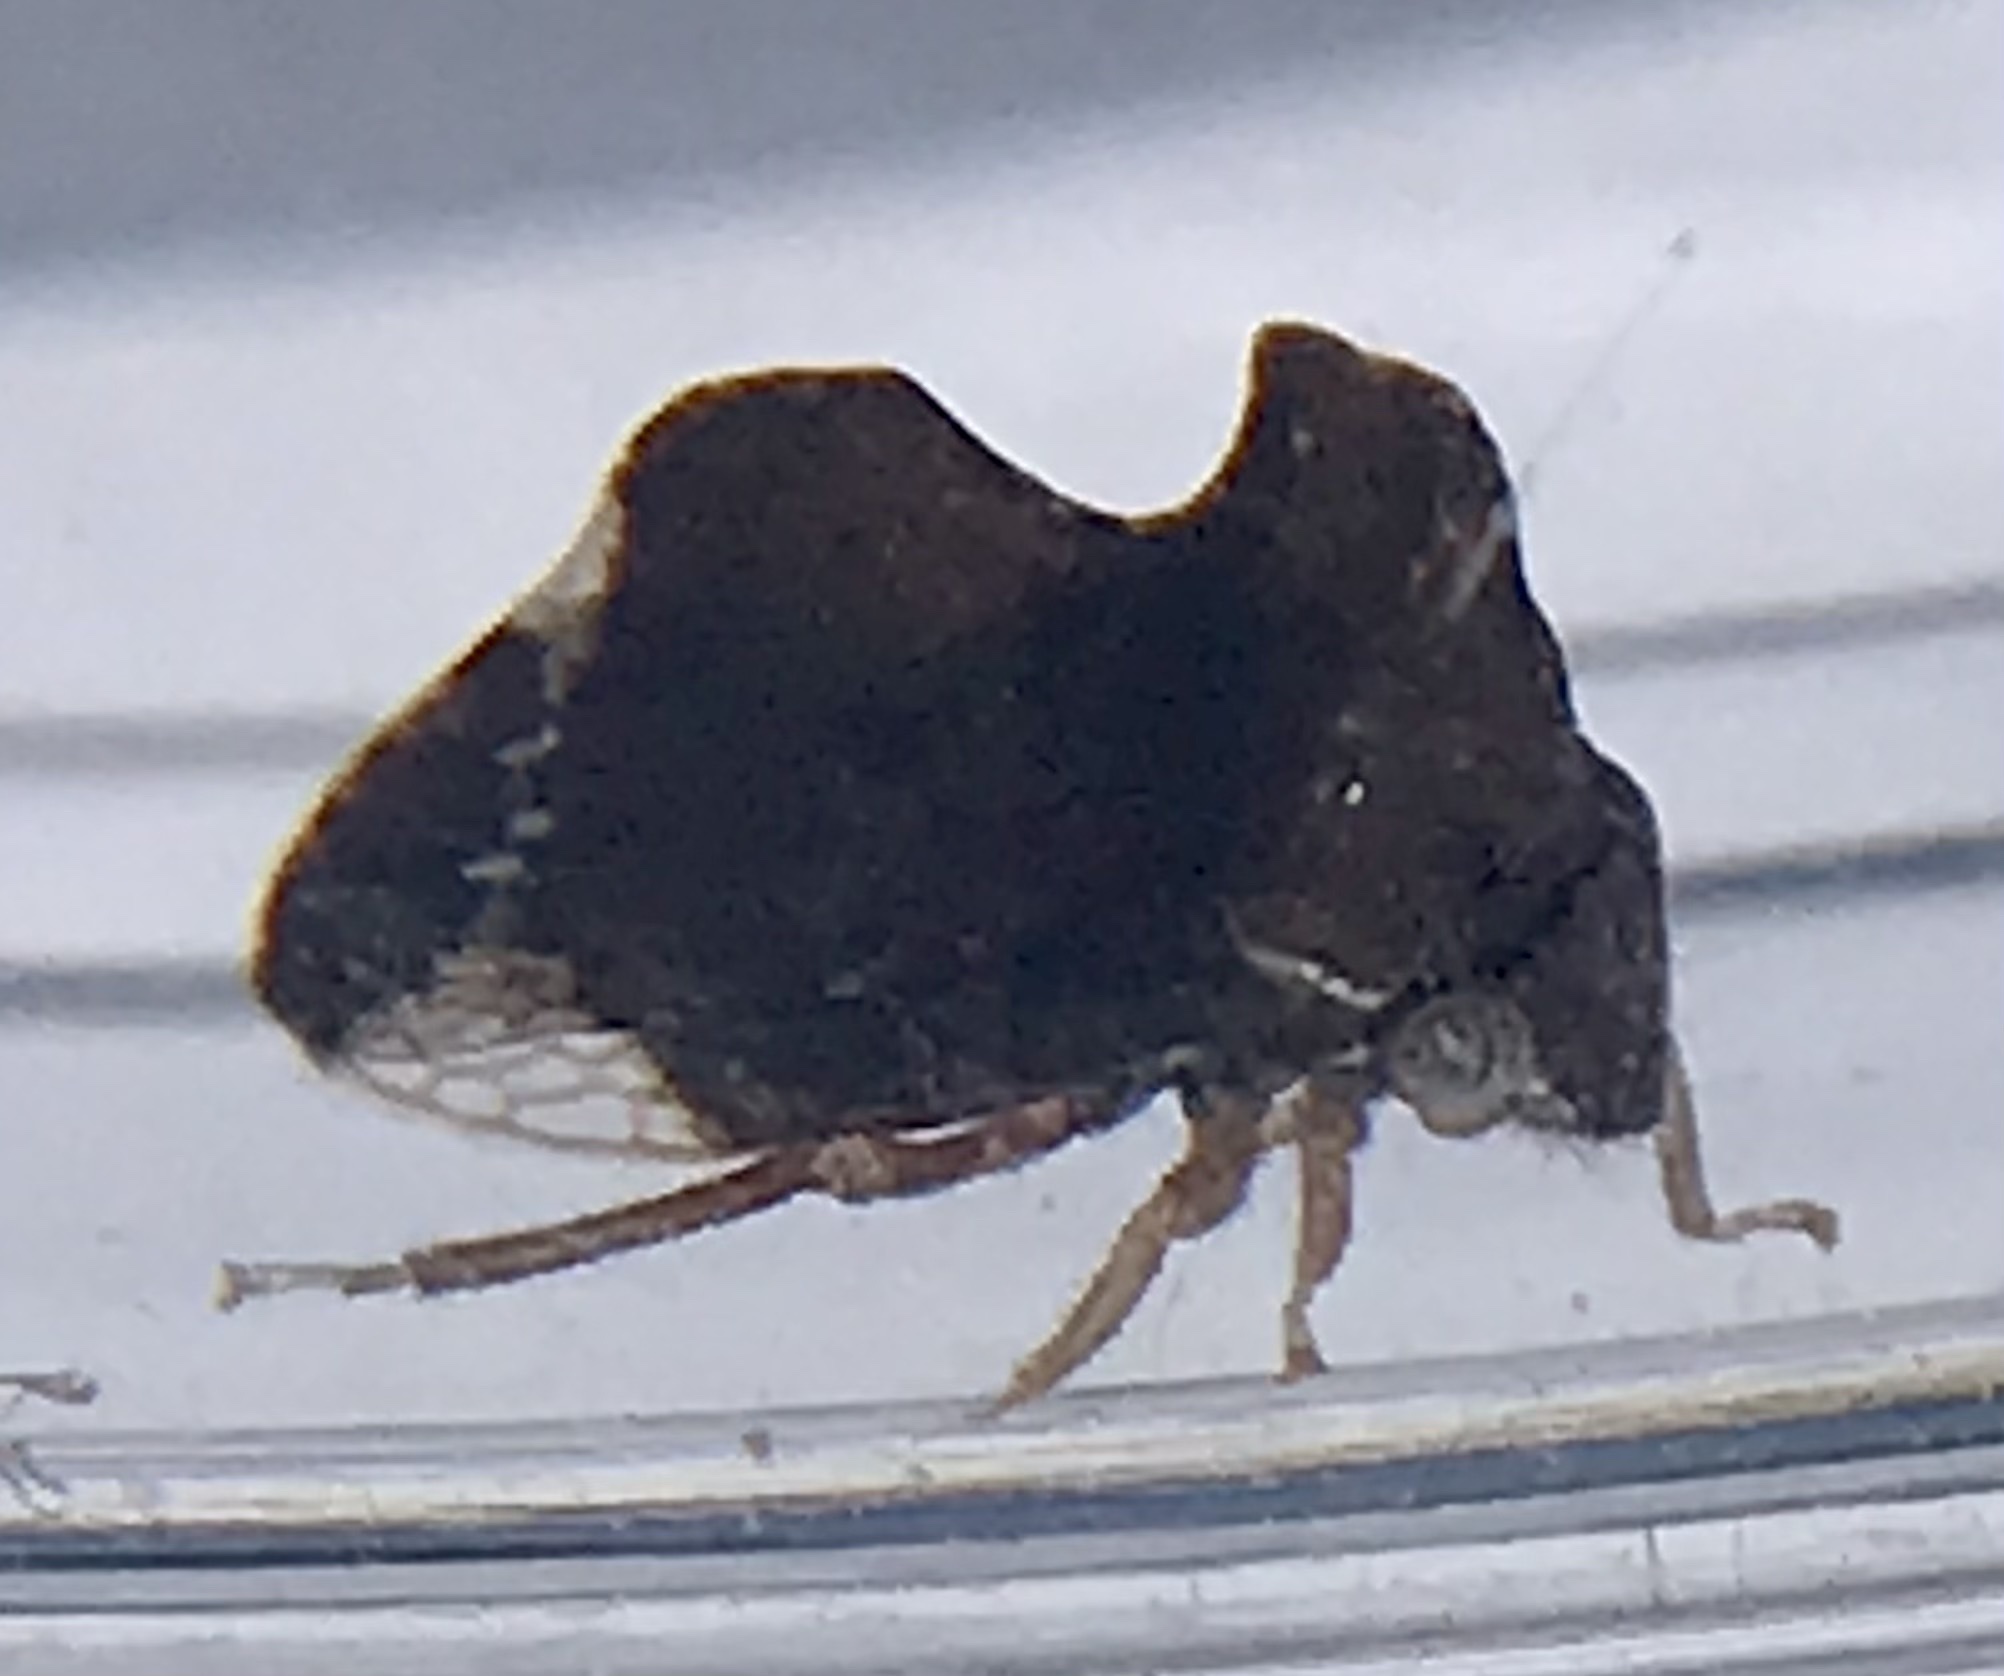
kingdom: Animalia
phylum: Arthropoda
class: Insecta
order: Hemiptera
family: Membracidae
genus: Entylia
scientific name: Entylia carinata
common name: Keeled treehopper
